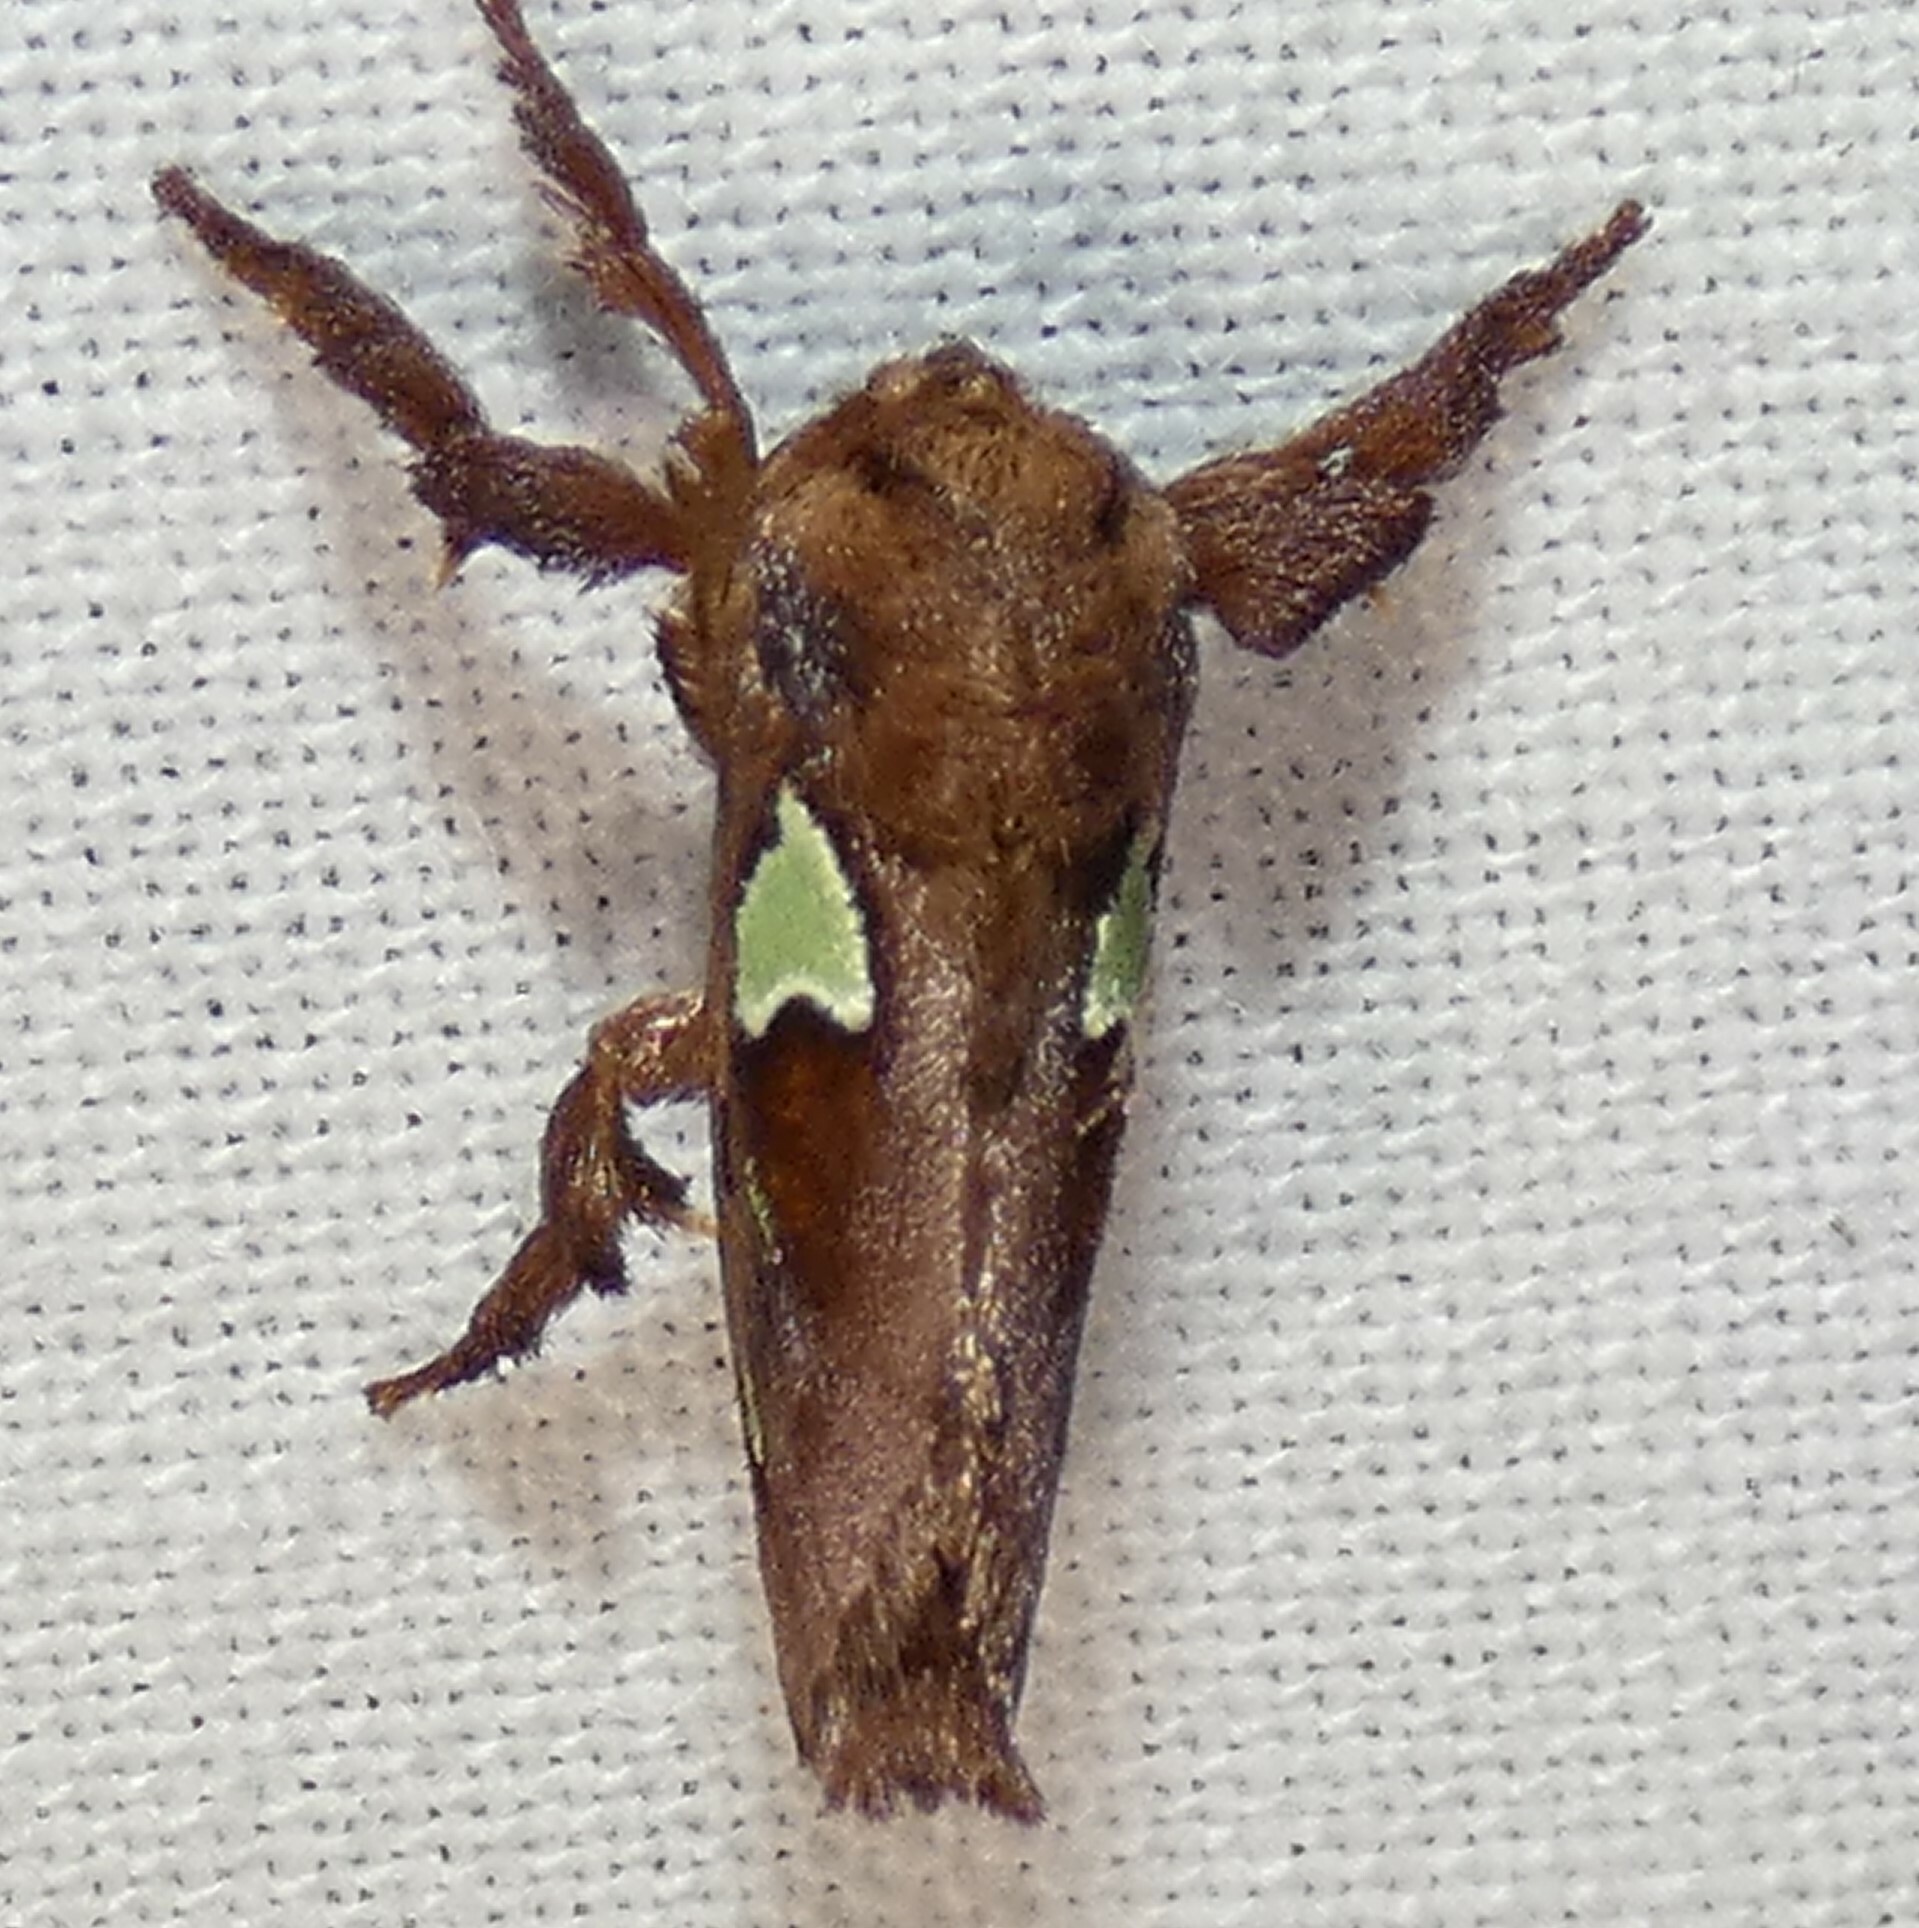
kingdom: Animalia
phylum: Arthropoda
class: Insecta
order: Lepidoptera
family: Limacodidae
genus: Euclea
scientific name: Euclea delphinii
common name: Spiny oak-slug moth
